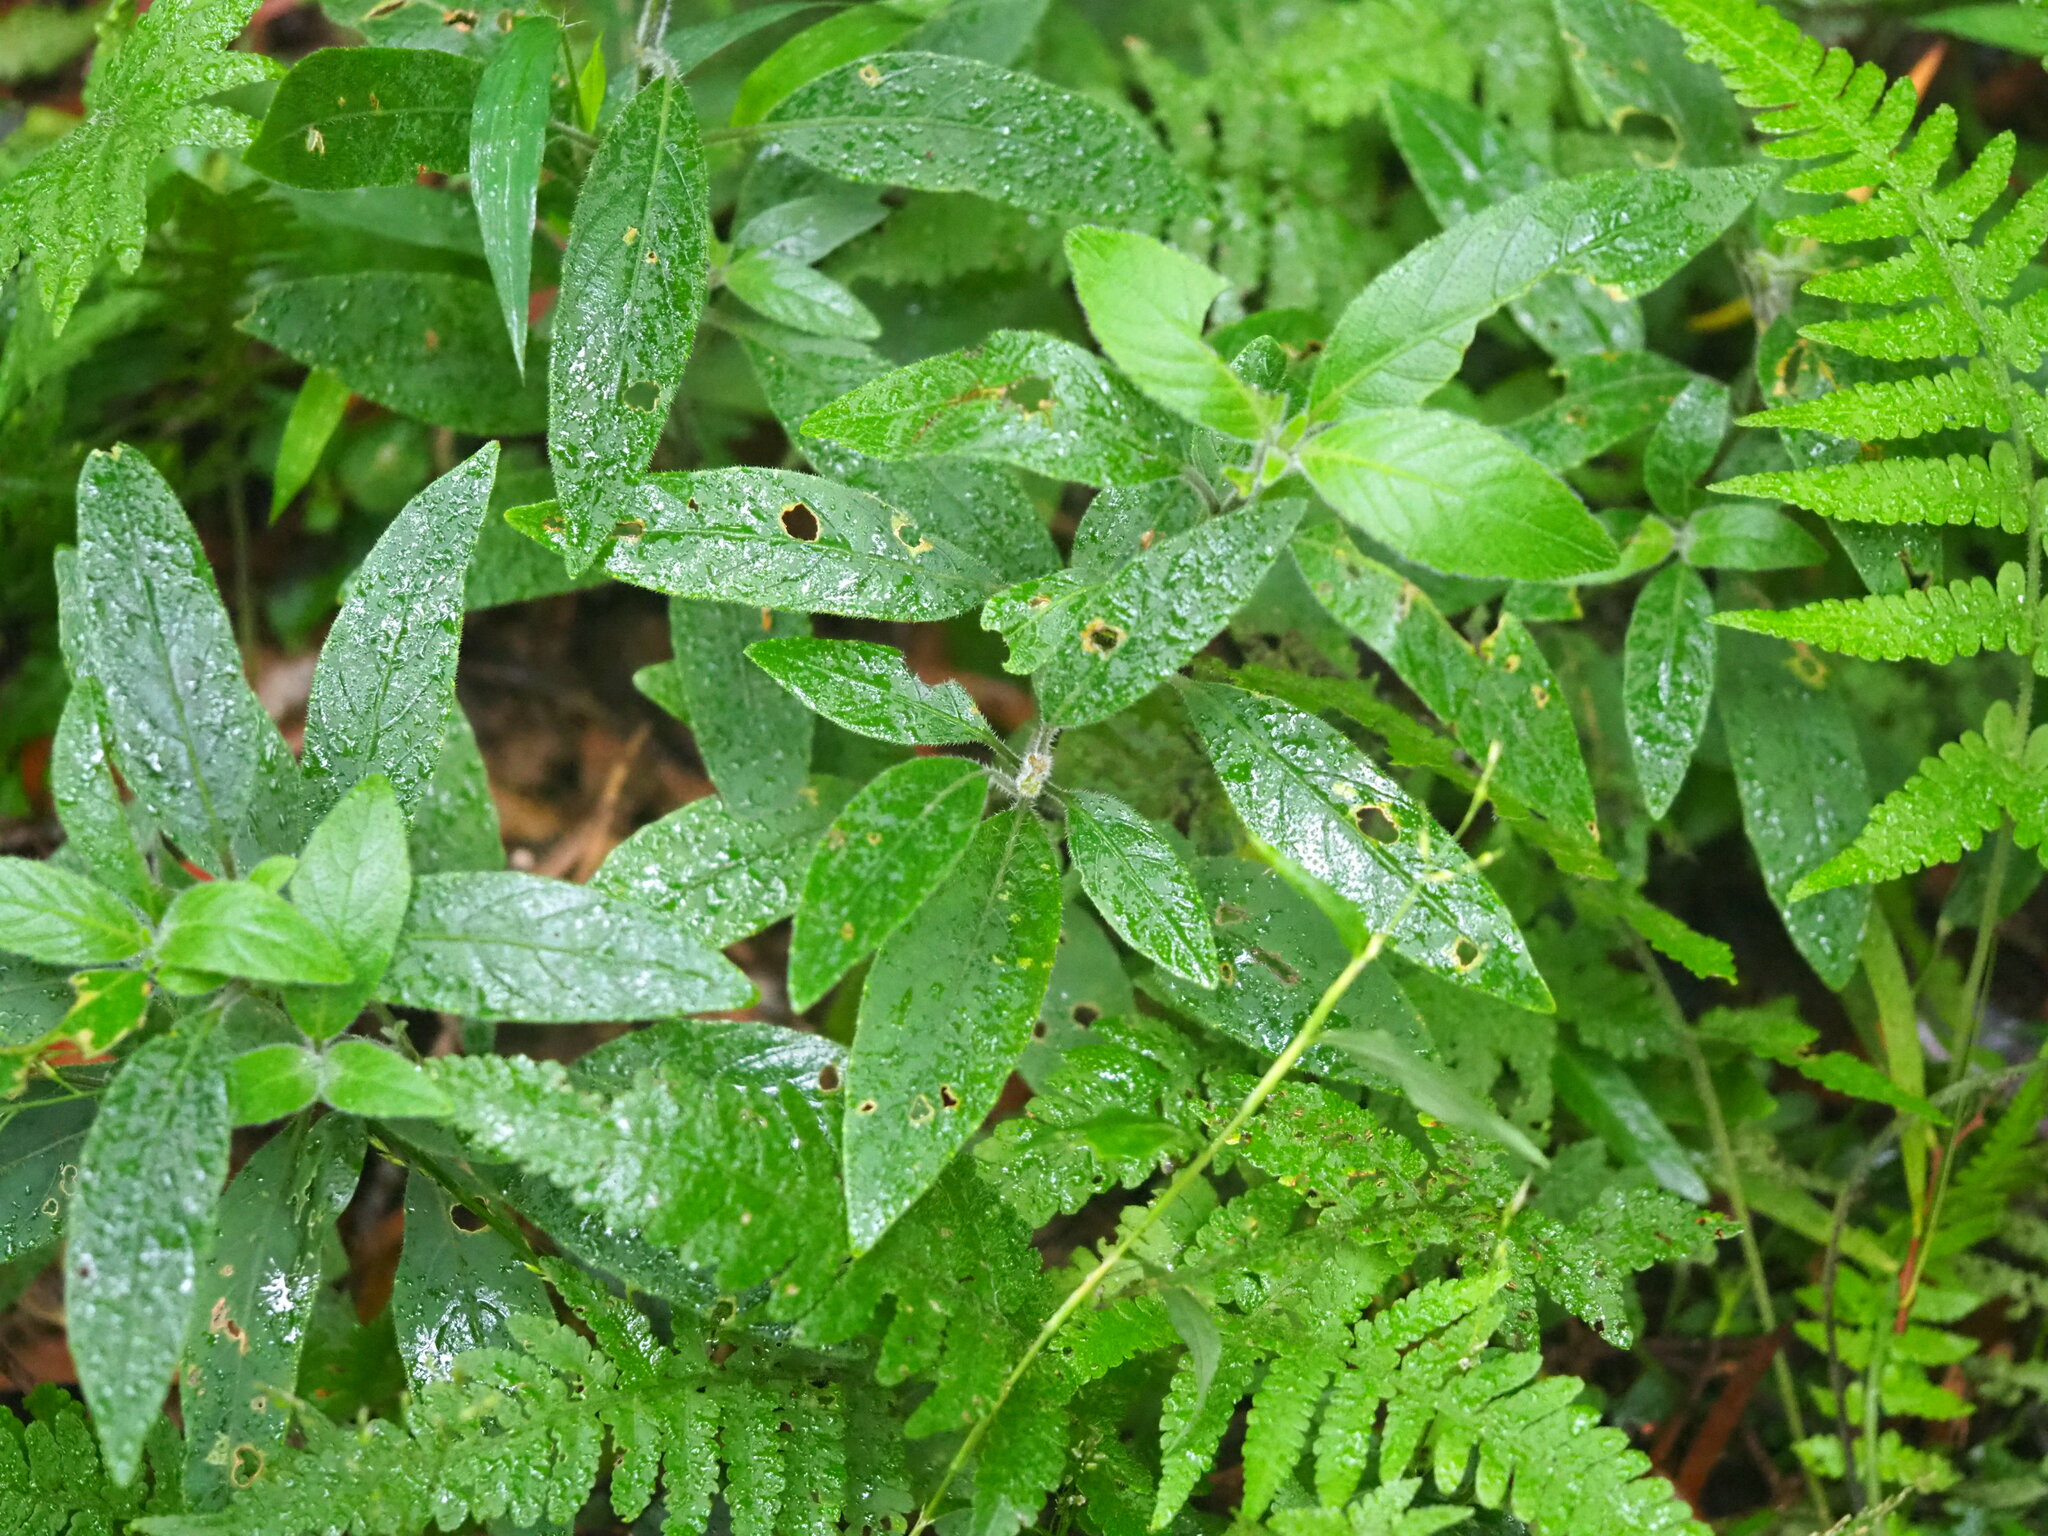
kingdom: Plantae
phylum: Tracheophyta
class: Magnoliopsida
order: Lamiales
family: Acanthaceae
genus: Ruellia
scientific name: Ruellia squarrosa
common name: Water bluebell
